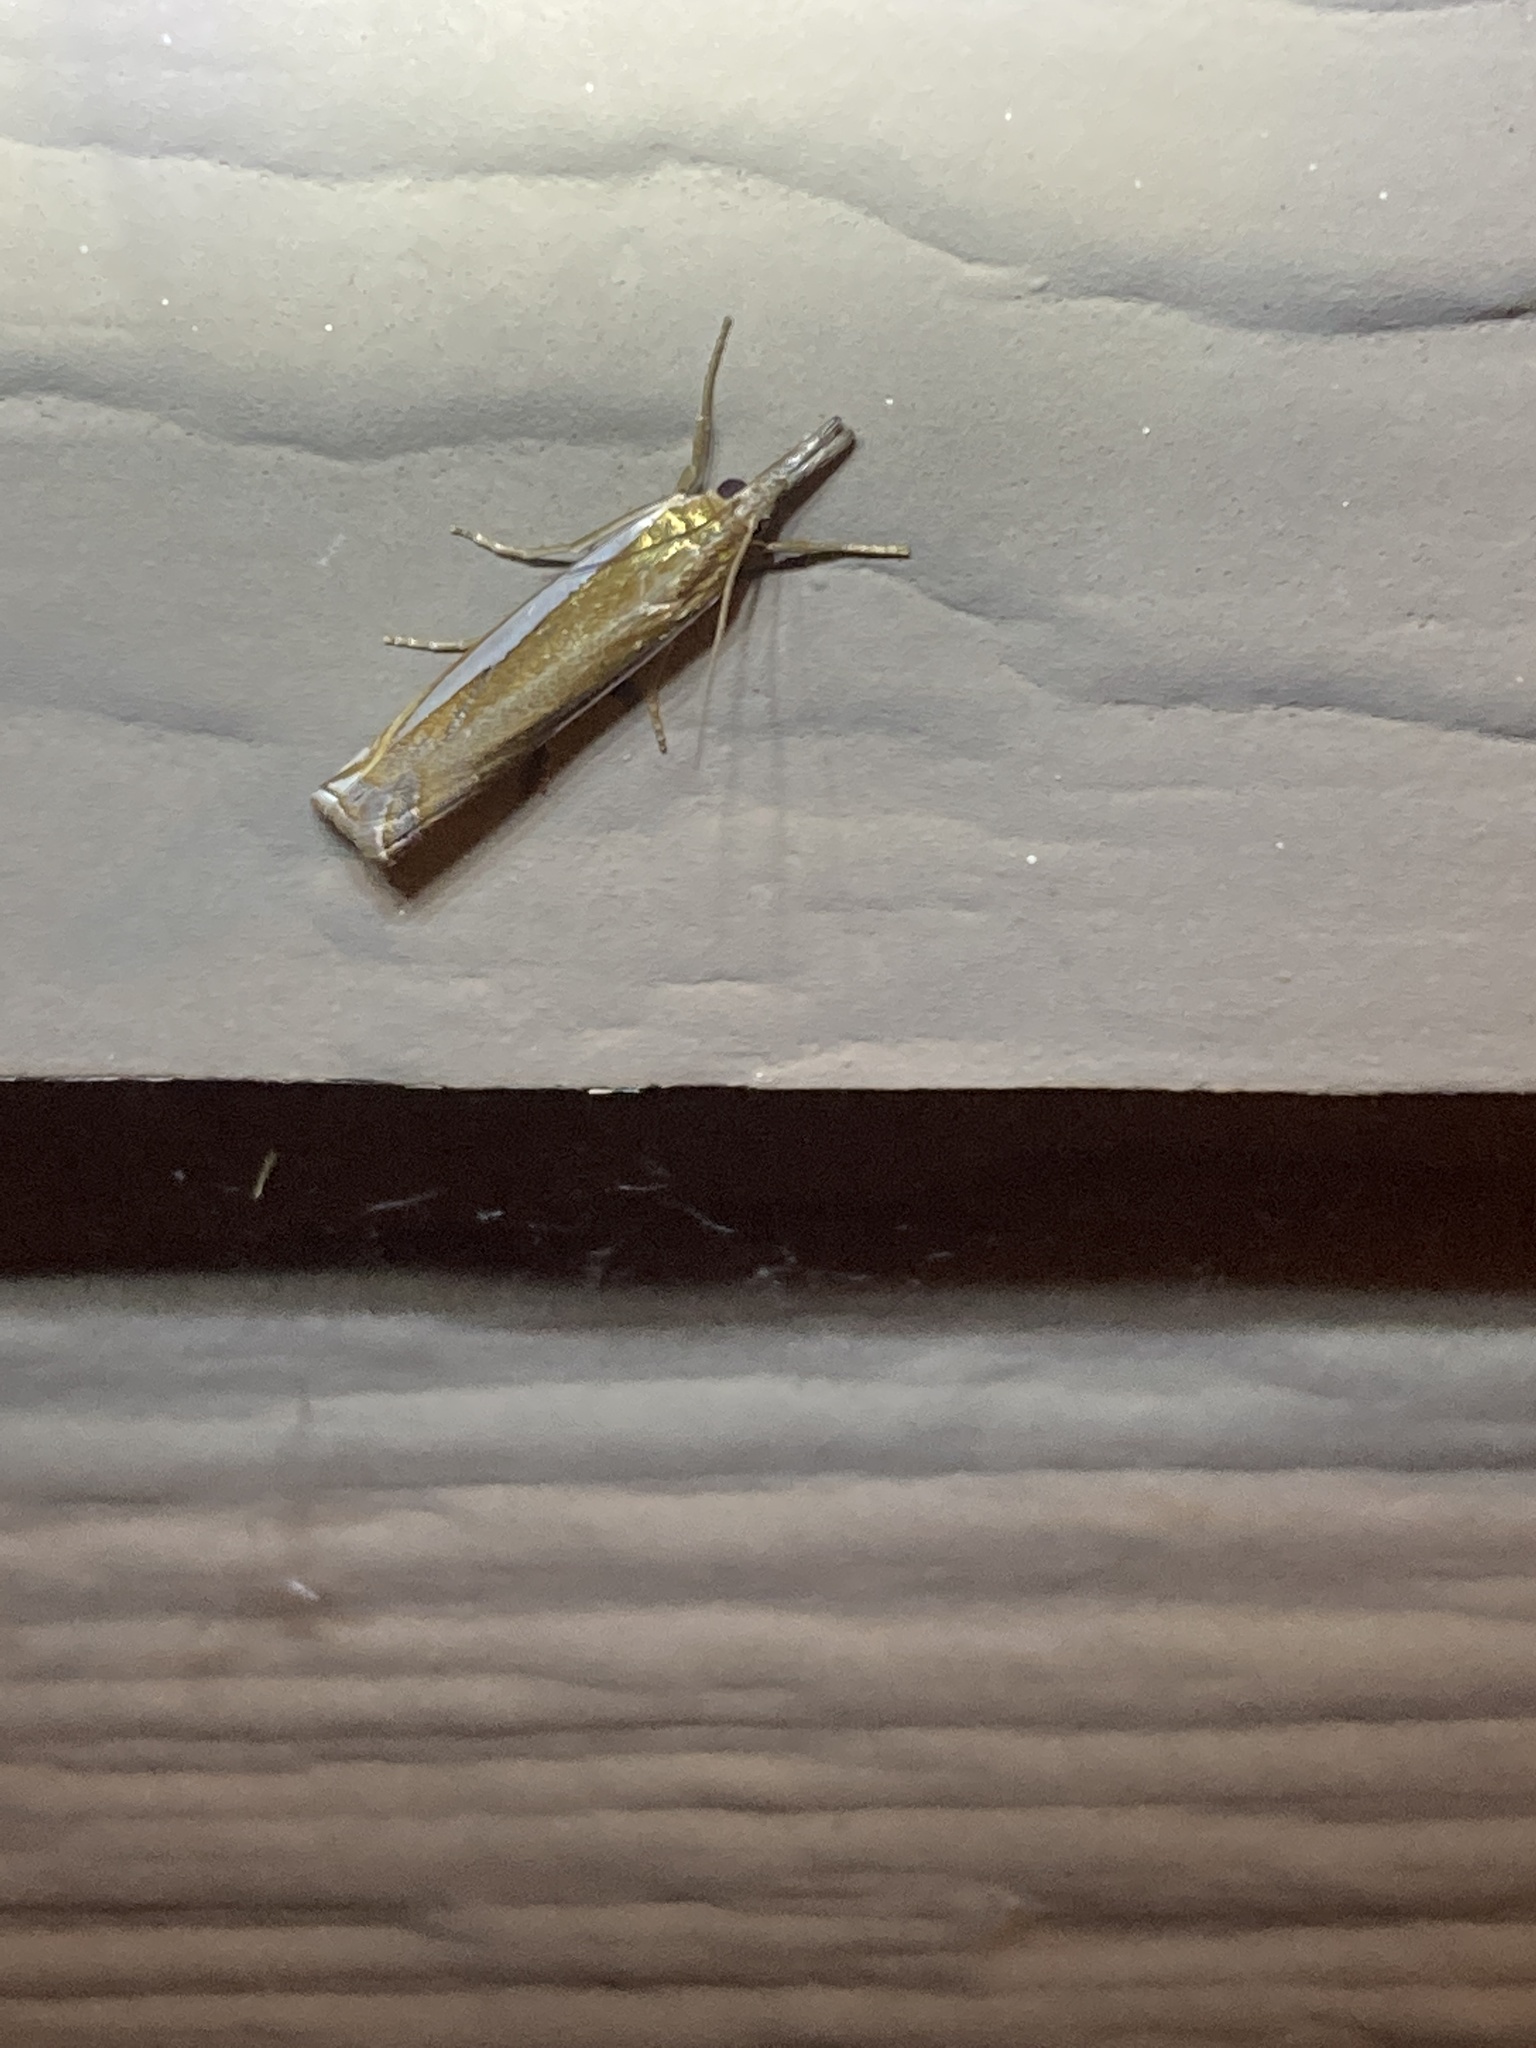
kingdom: Animalia
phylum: Arthropoda
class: Insecta
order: Lepidoptera
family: Crambidae
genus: Crambus
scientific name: Crambus
